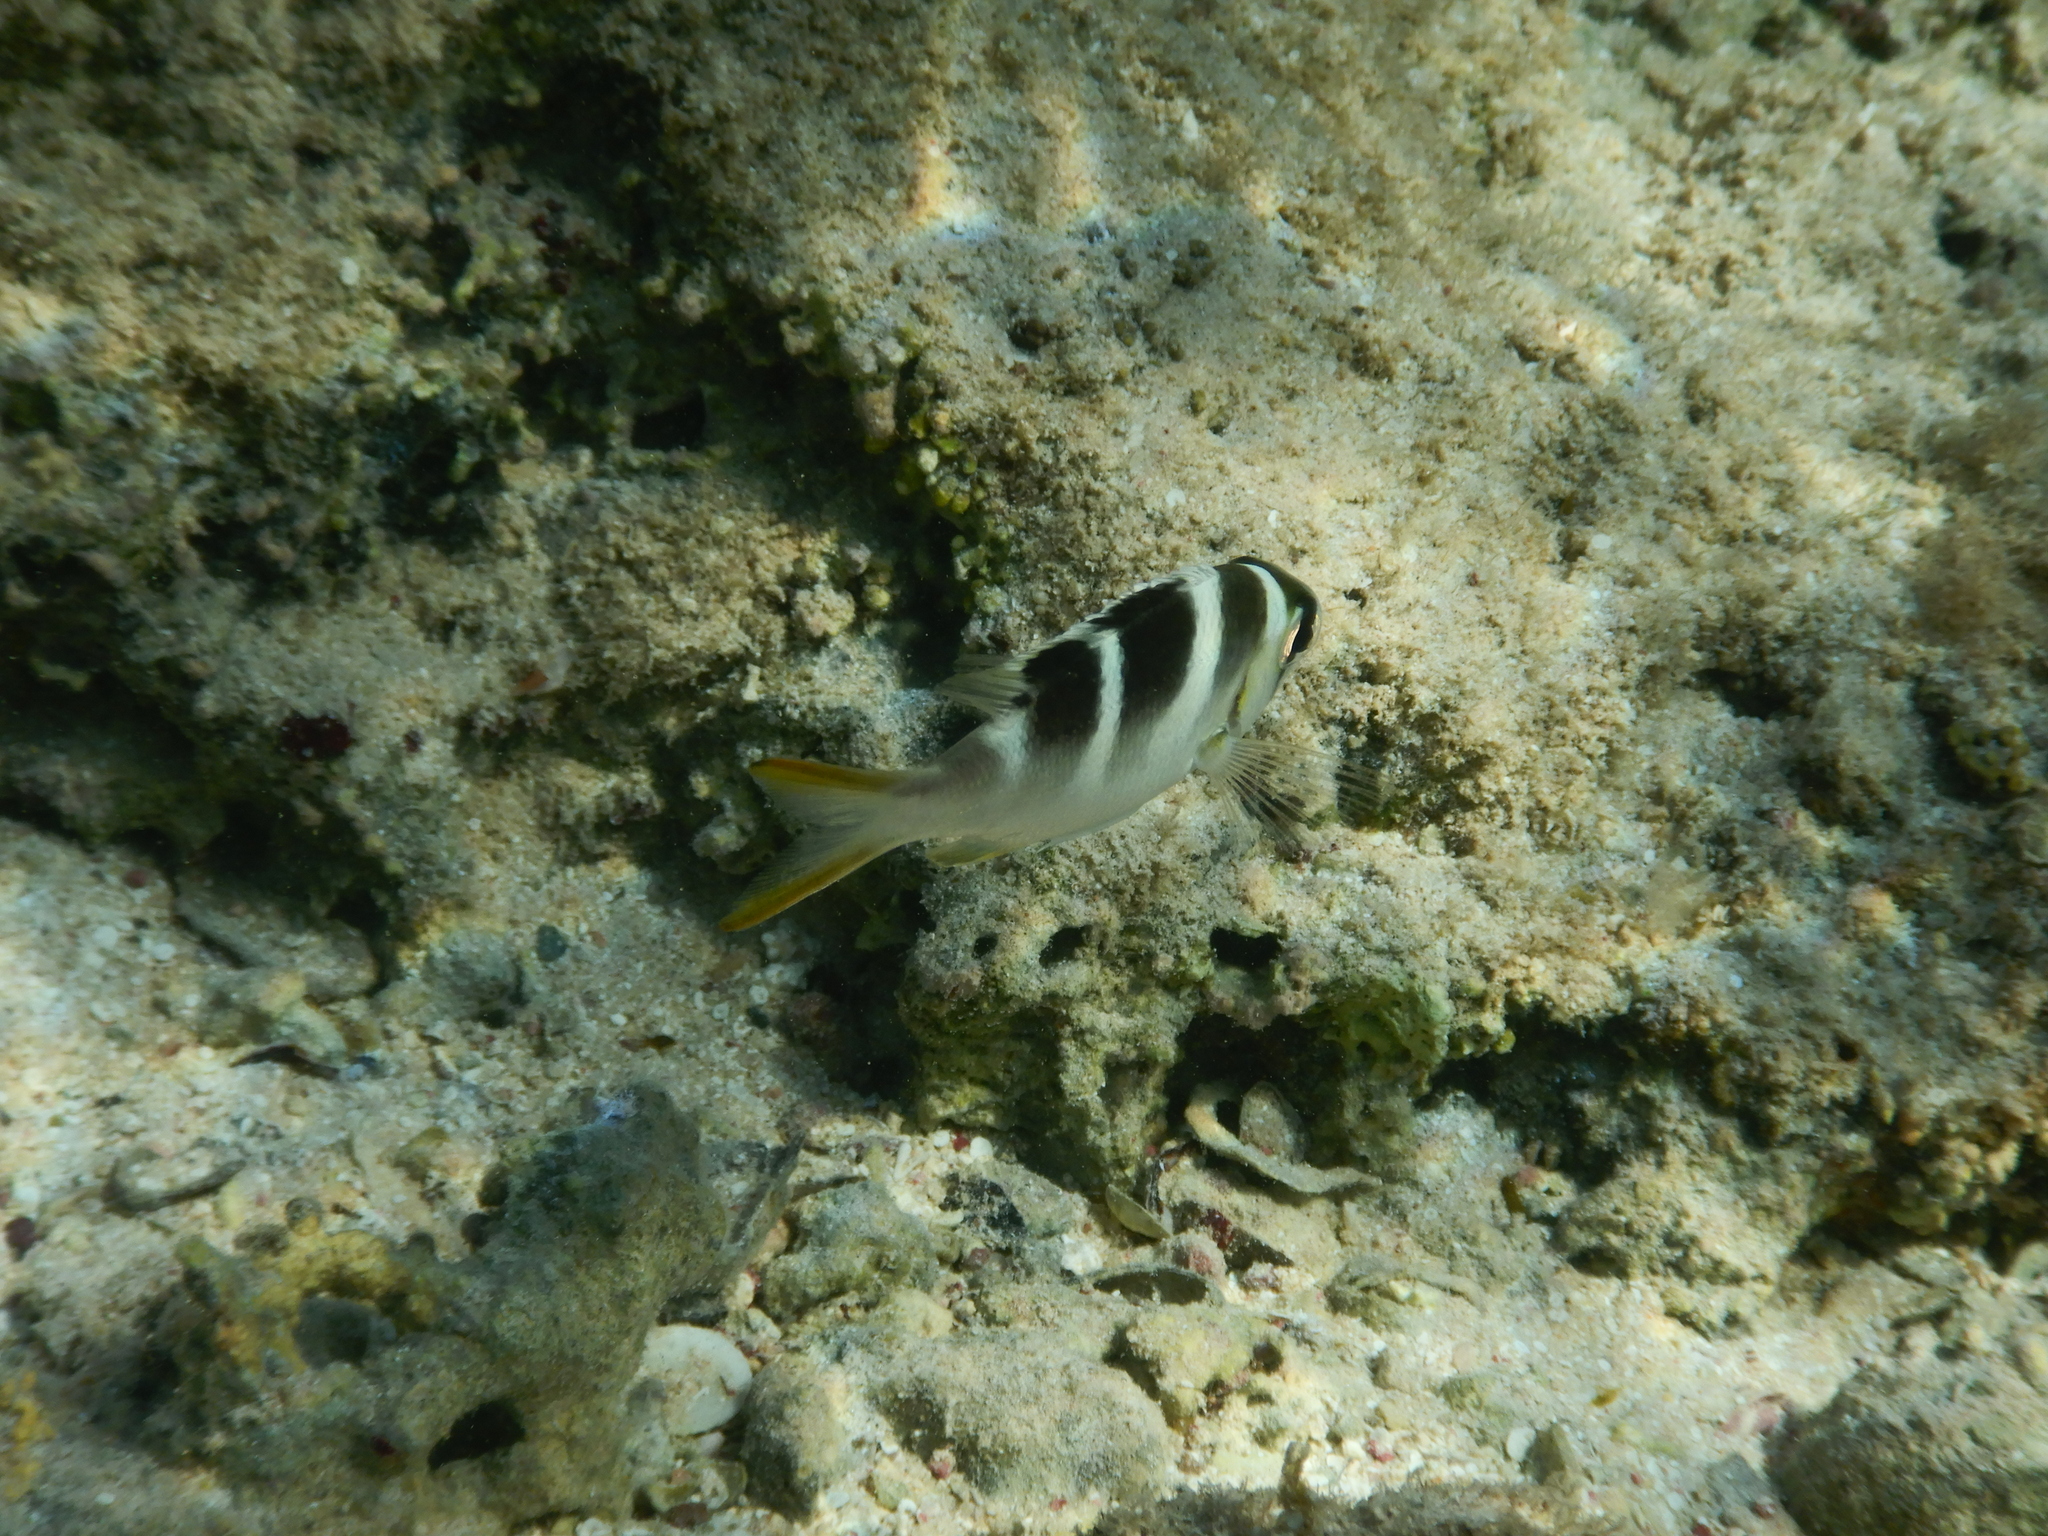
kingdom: Animalia
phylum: Chordata
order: Perciformes
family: Lethrinidae
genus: Monotaxis
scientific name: Monotaxis grandoculis
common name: Bigeye emperor
